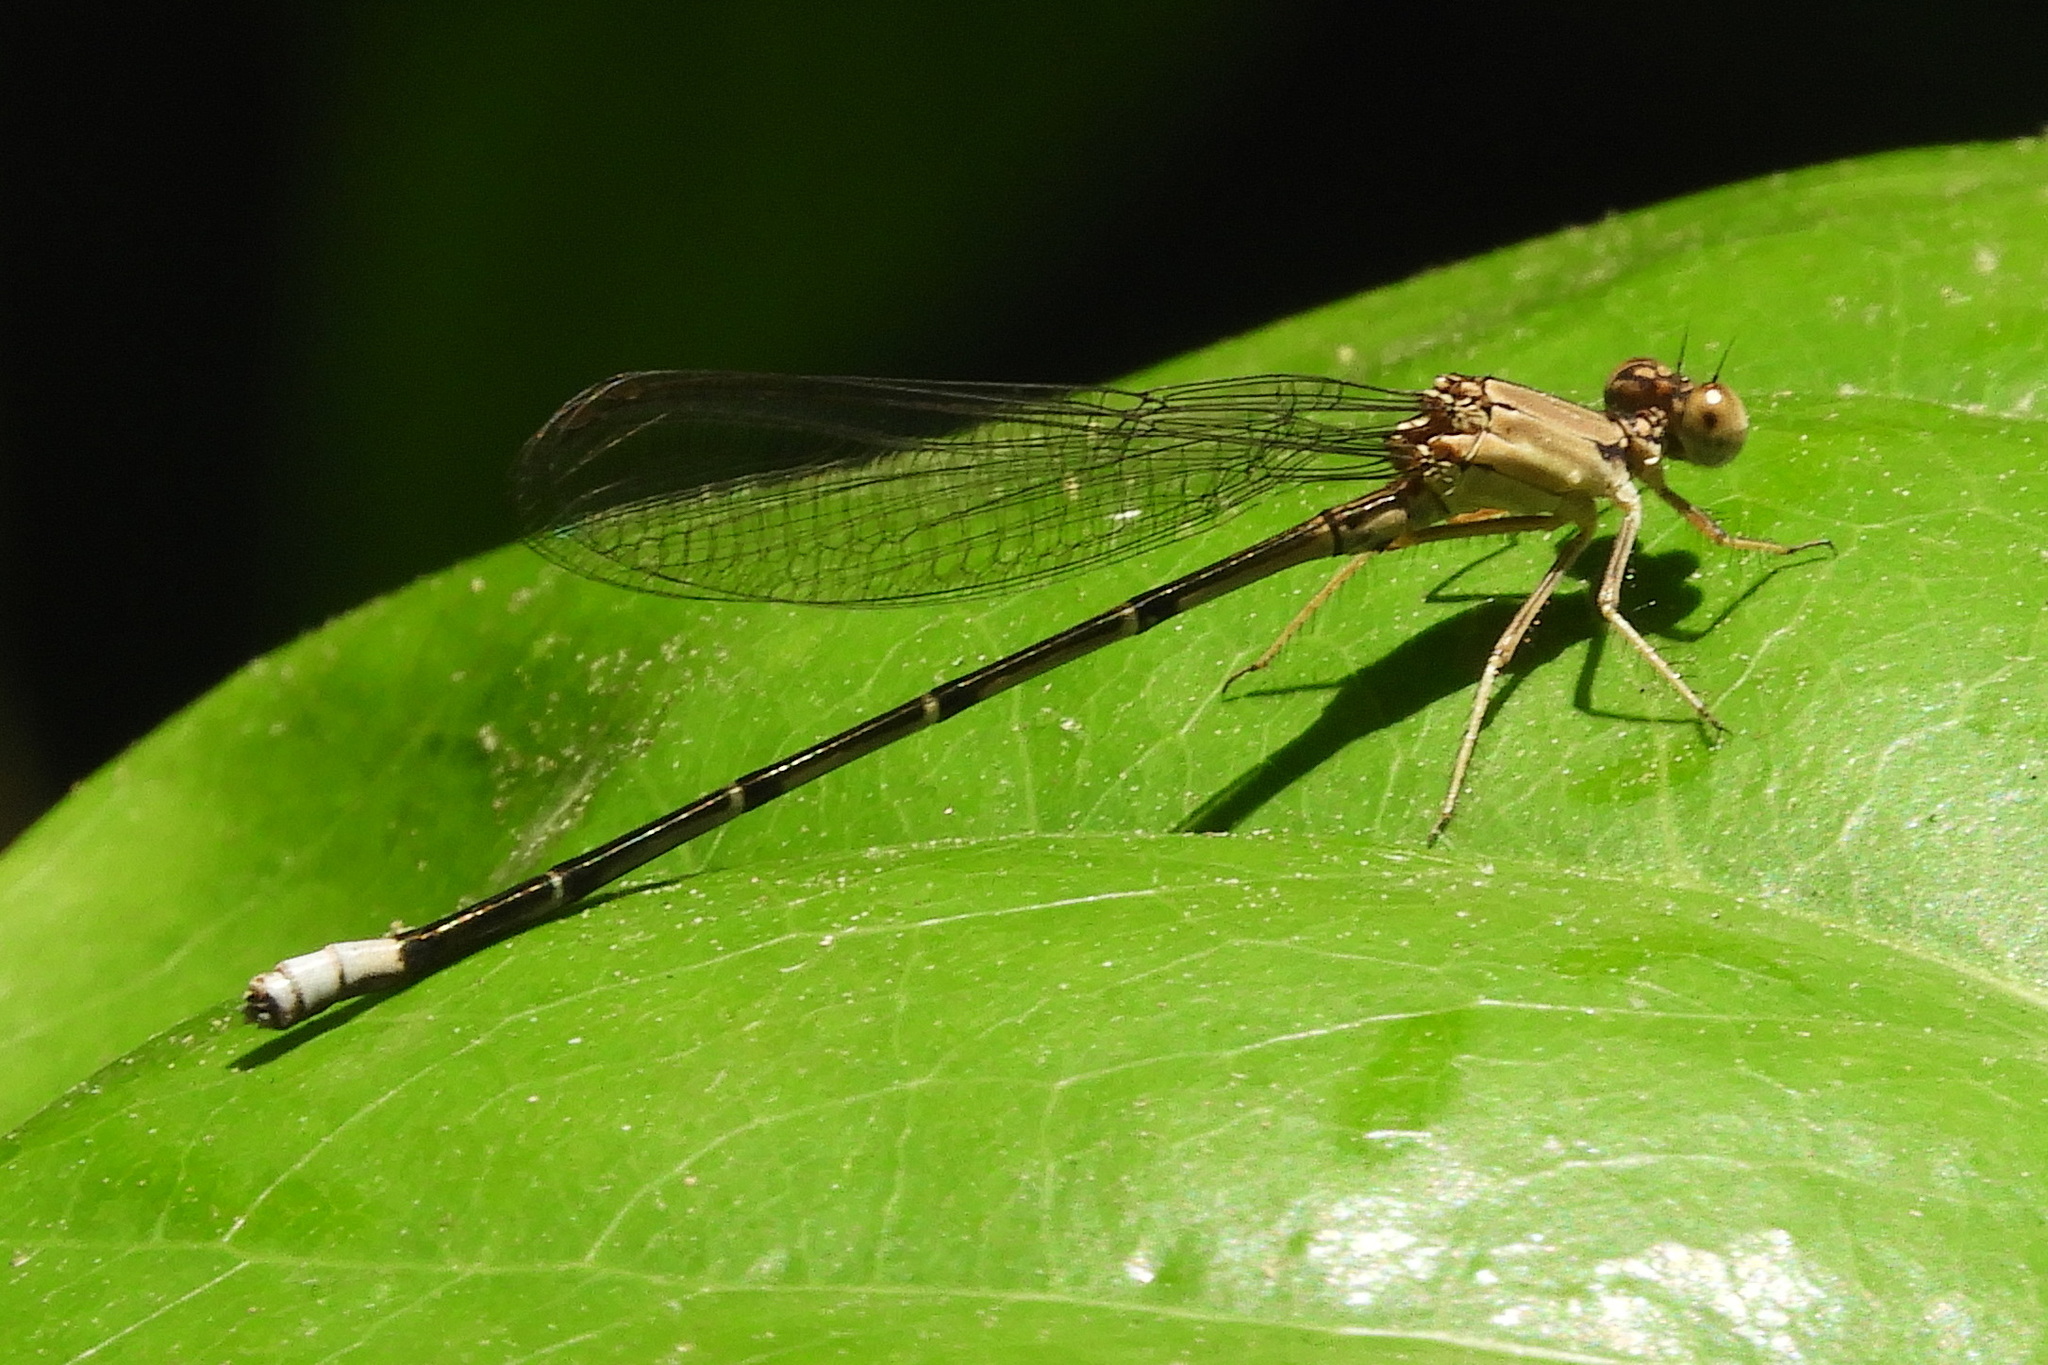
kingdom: Animalia
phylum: Arthropoda
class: Insecta
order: Odonata
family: Coenagrionidae
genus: Argia
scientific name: Argia apicalis
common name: Blue-fronted dancer
